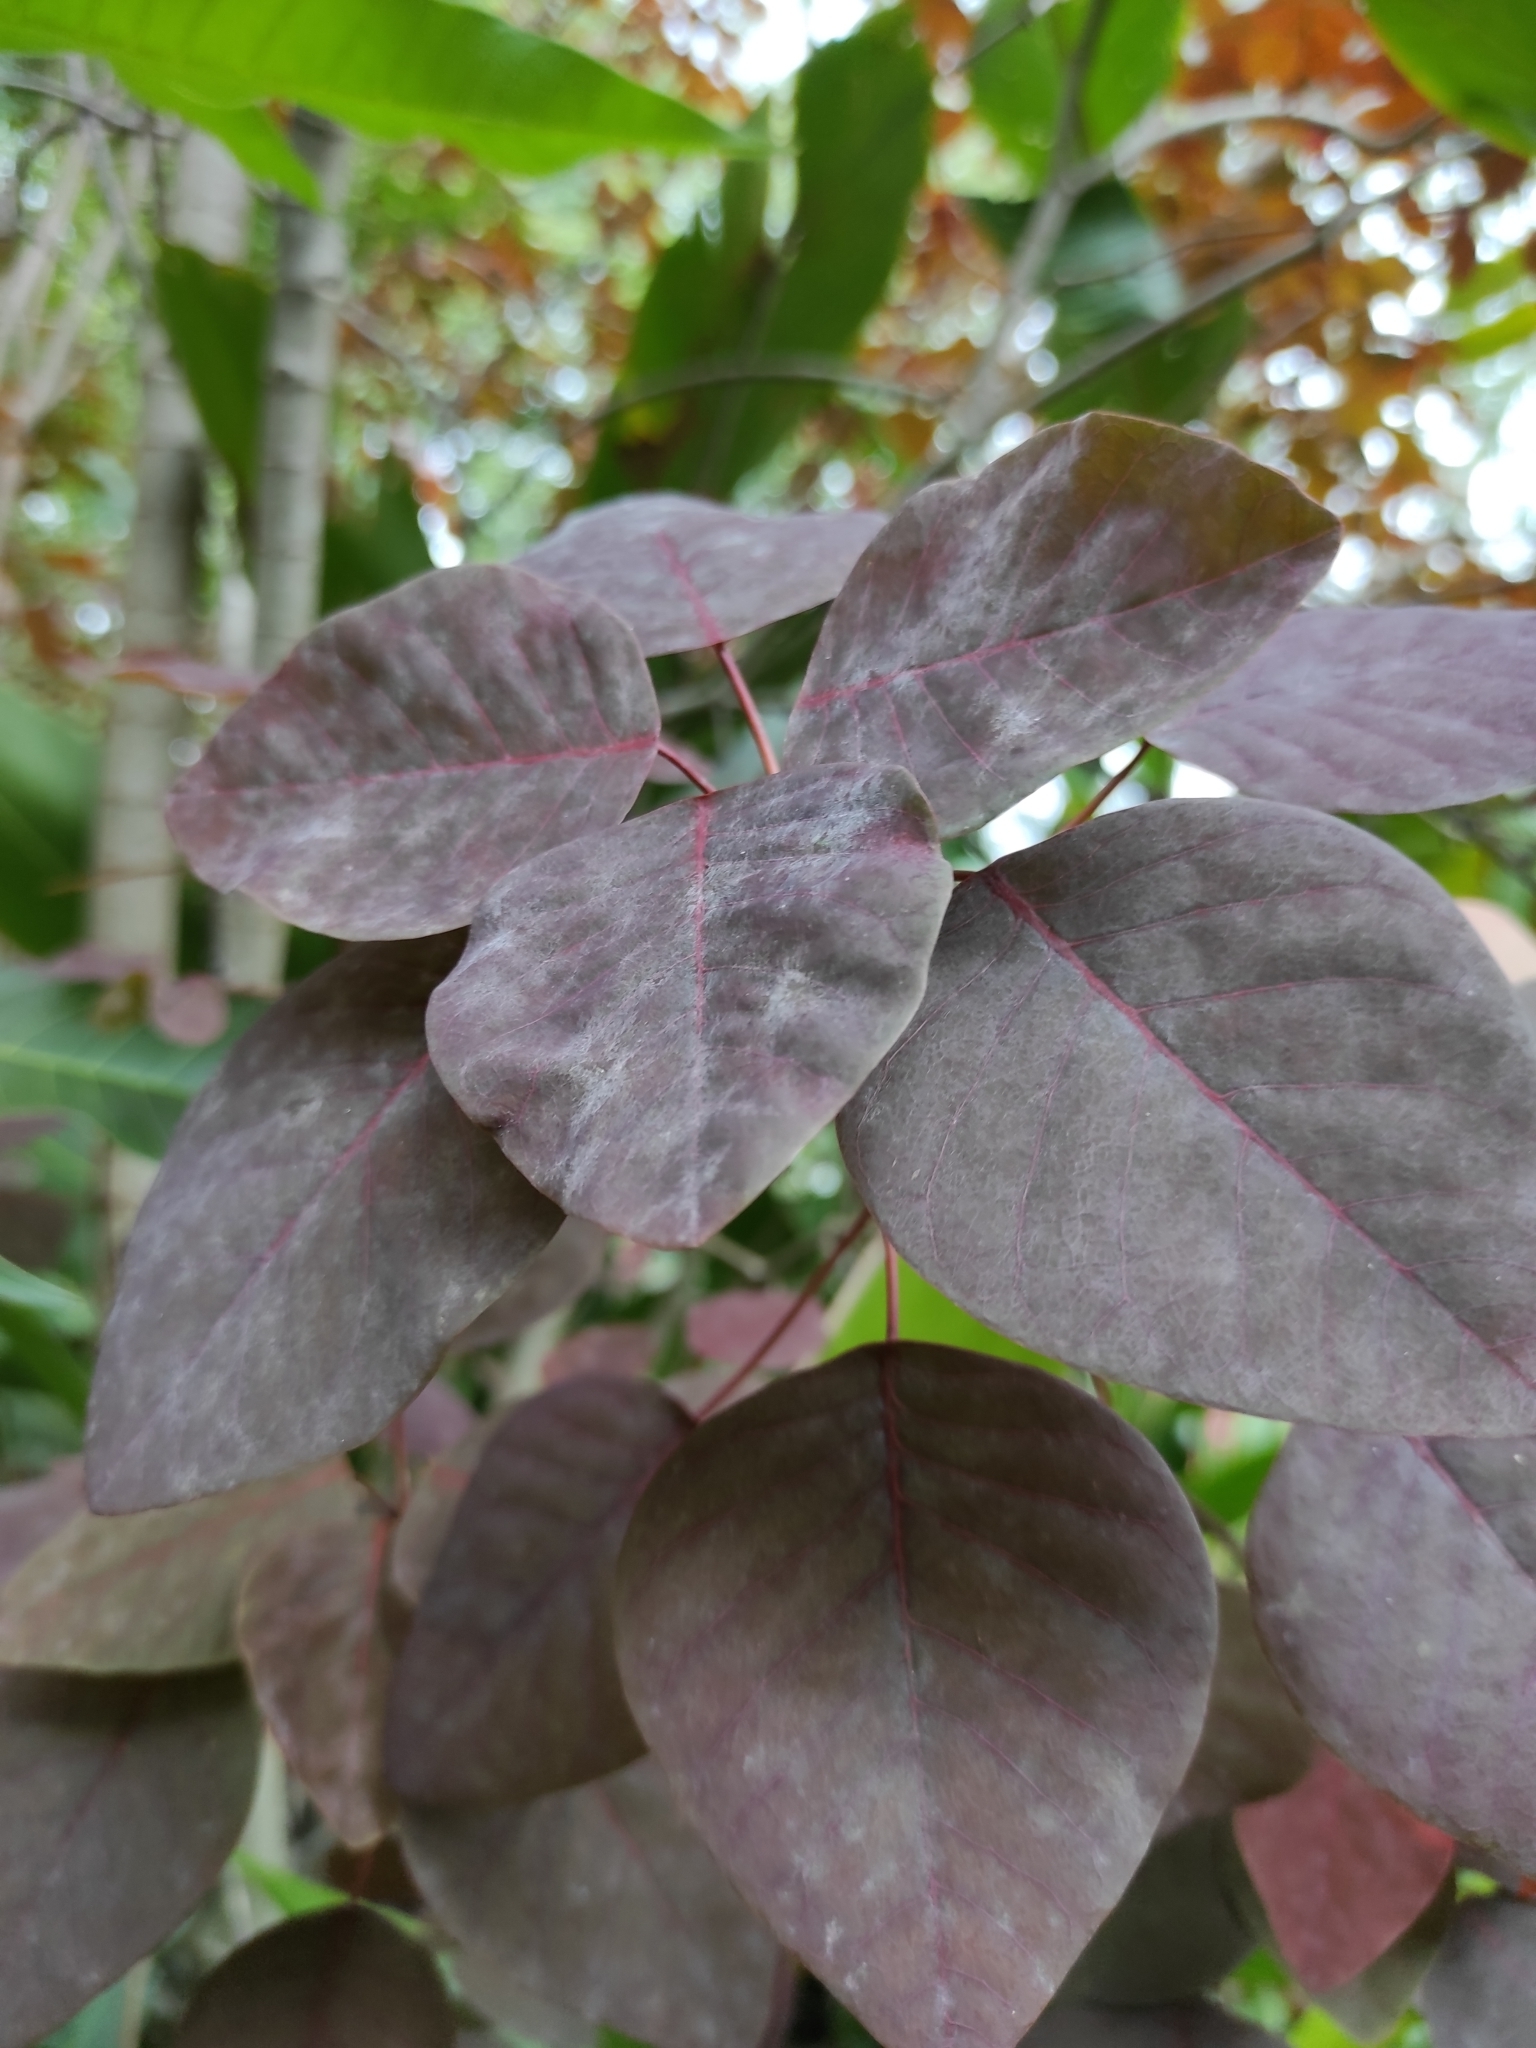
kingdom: Plantae
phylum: Tracheophyta
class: Magnoliopsida
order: Malpighiales
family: Euphorbiaceae
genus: Euphorbia
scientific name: Euphorbia cotinifolia
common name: Tropical smokebush
